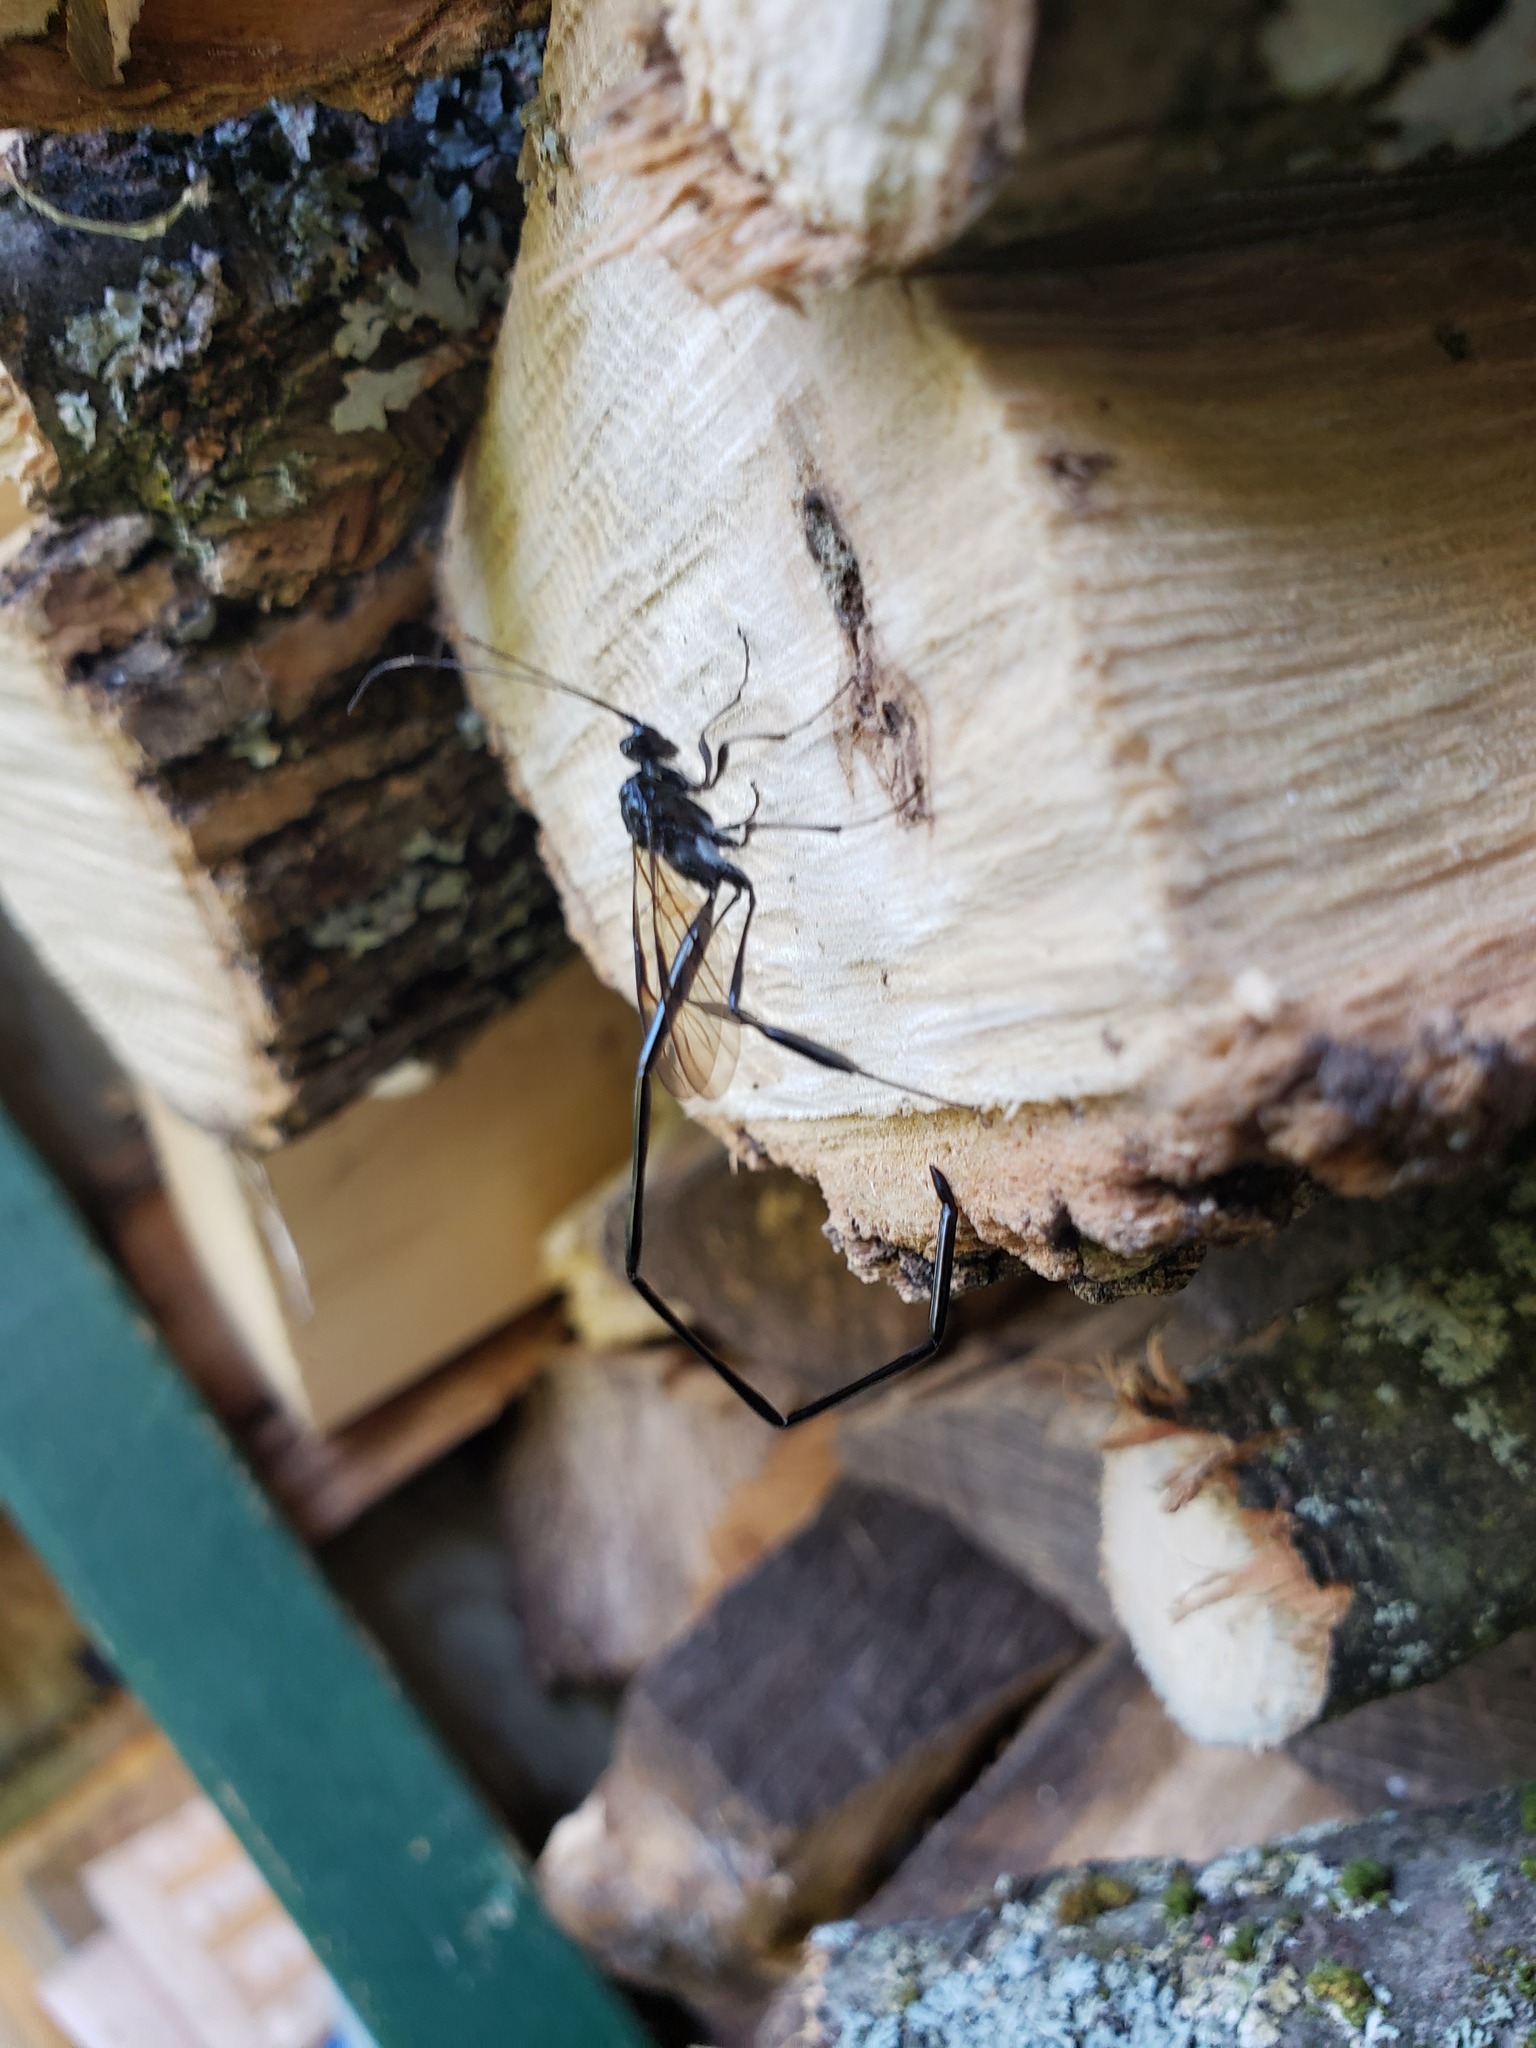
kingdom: Animalia
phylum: Arthropoda
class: Insecta
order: Hymenoptera
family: Pelecinidae
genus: Pelecinus
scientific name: Pelecinus polyturator
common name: American pelecinid wasp
